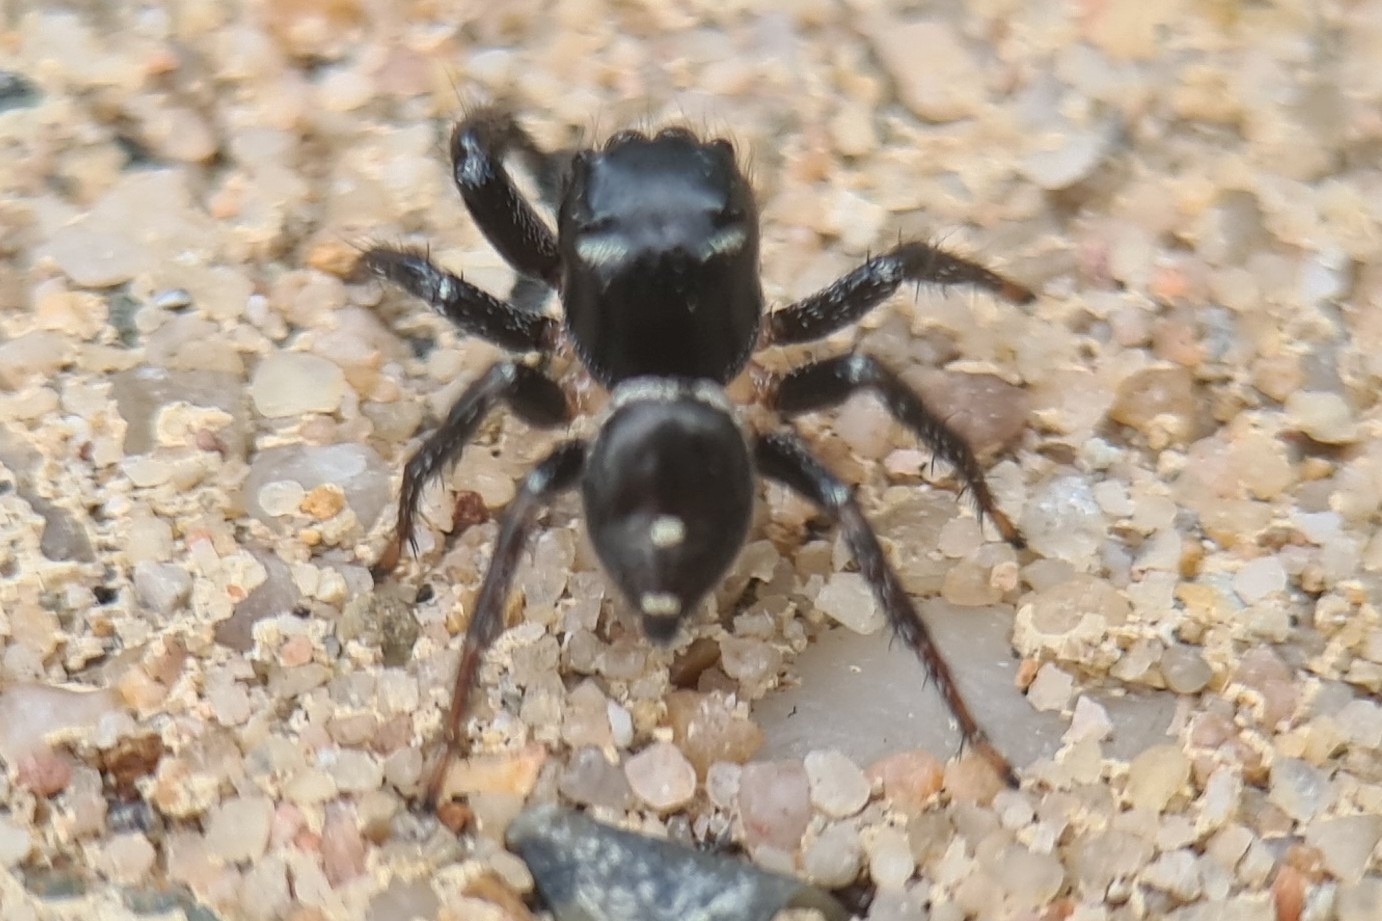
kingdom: Animalia
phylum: Arthropoda
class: Arachnida
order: Araneae
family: Salticidae
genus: Zenodorus
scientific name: Zenodorus orbiculatus
